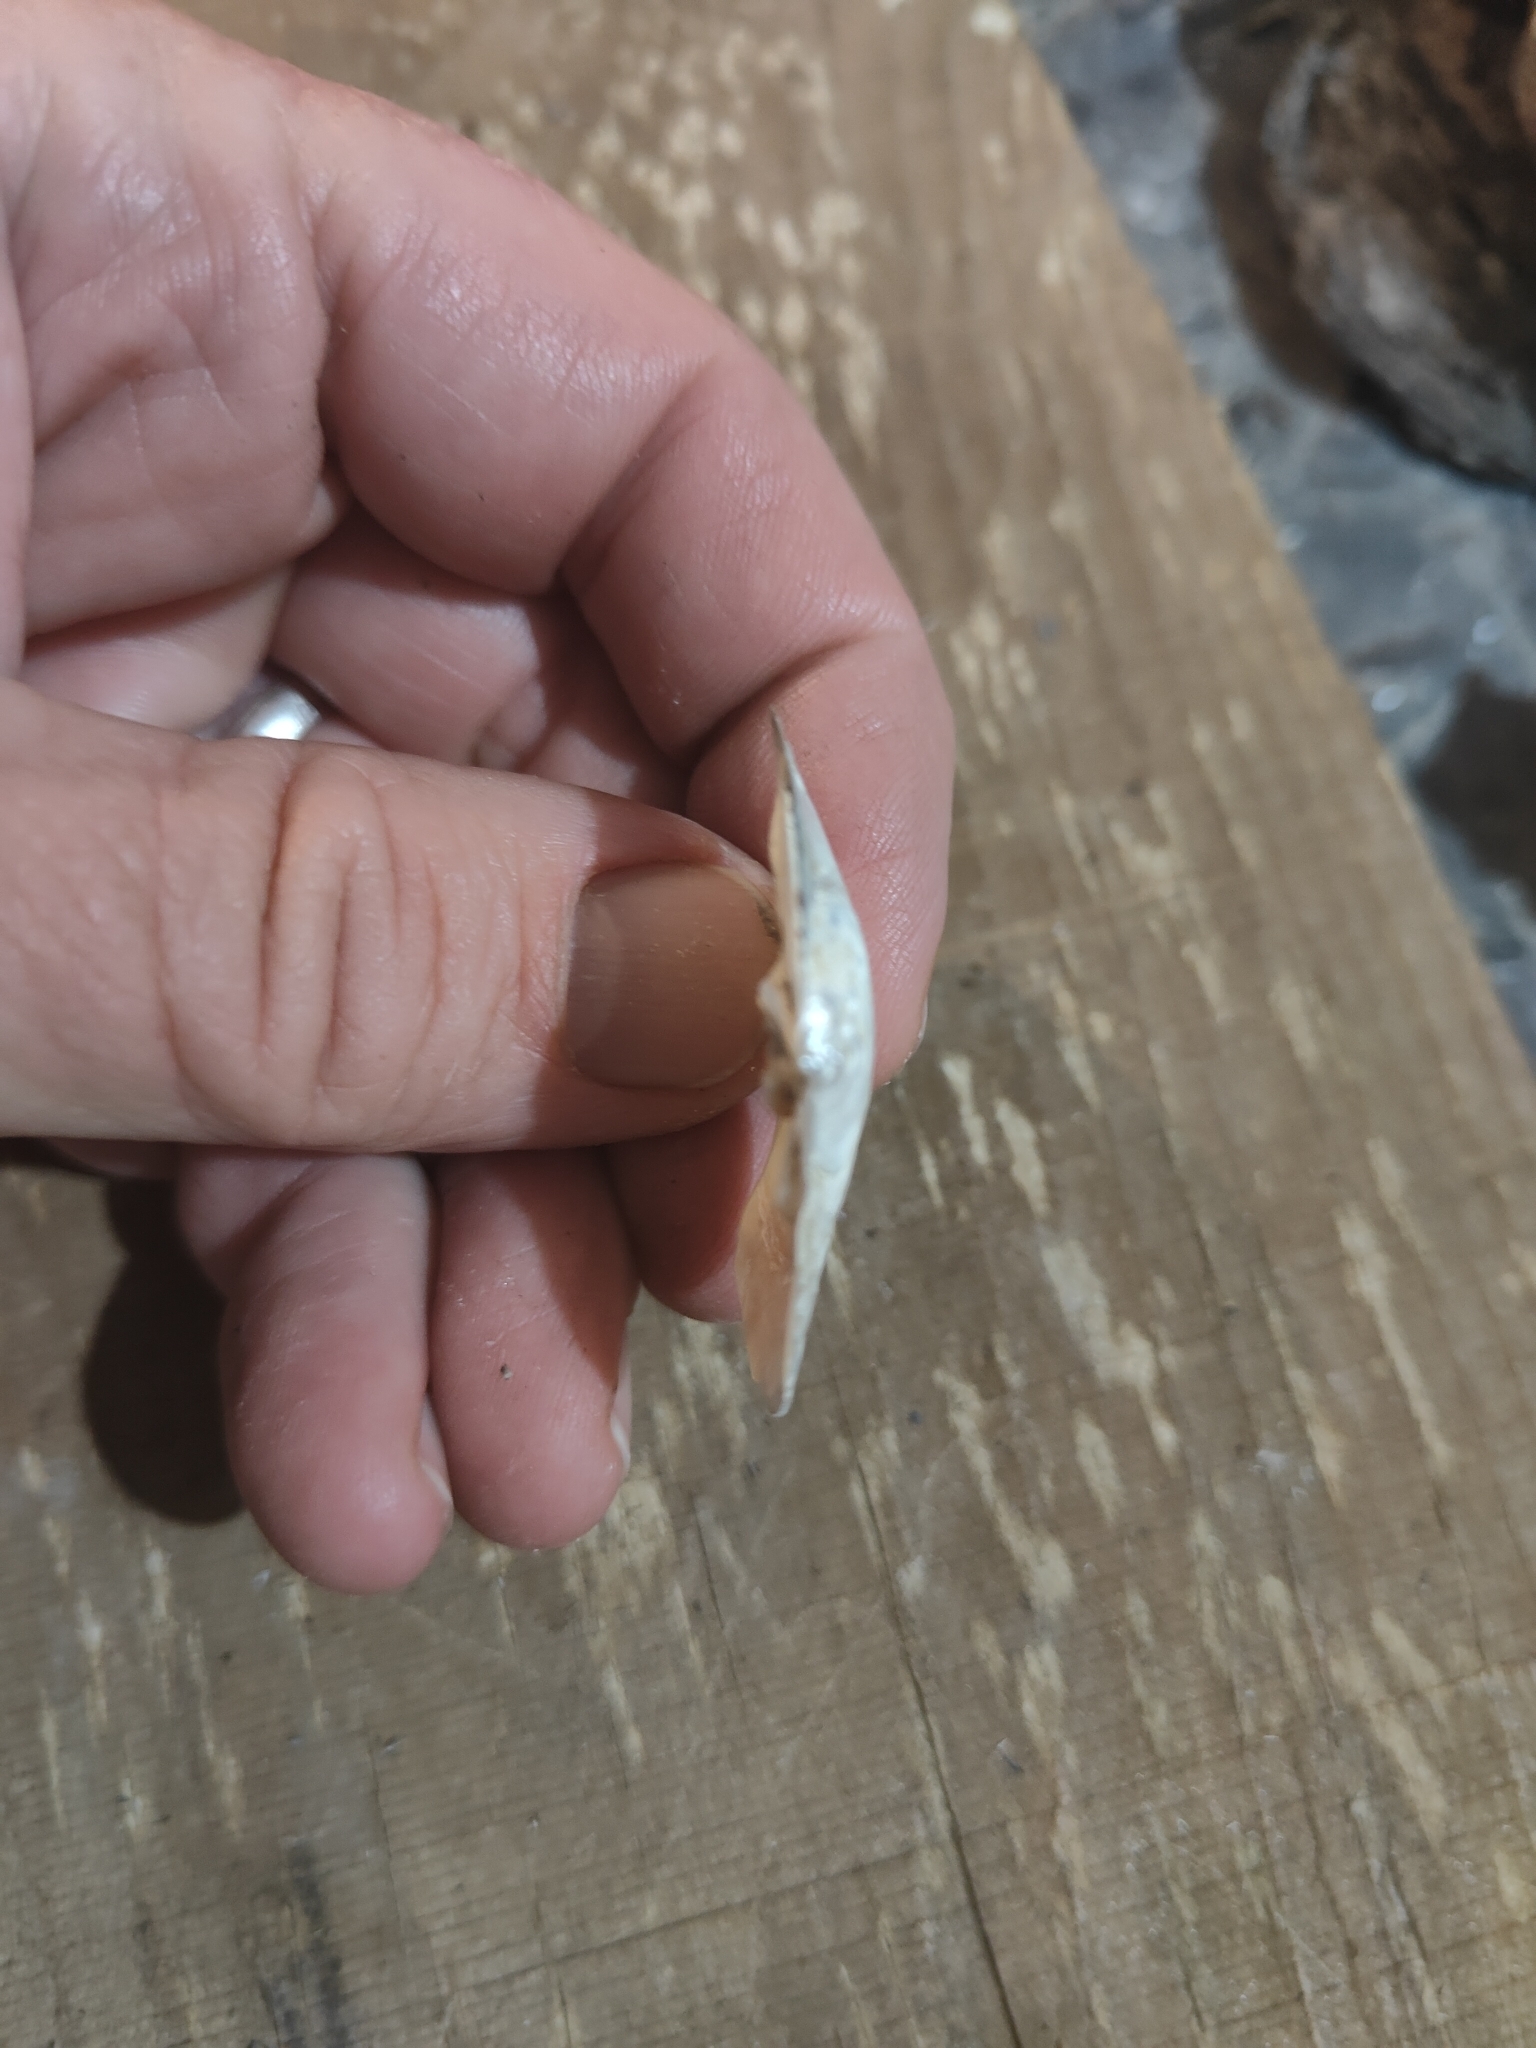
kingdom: Animalia
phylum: Mollusca
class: Bivalvia
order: Unionida
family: Unionidae
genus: Lasmigona
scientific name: Lasmigona complanata
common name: White heelsplitter
